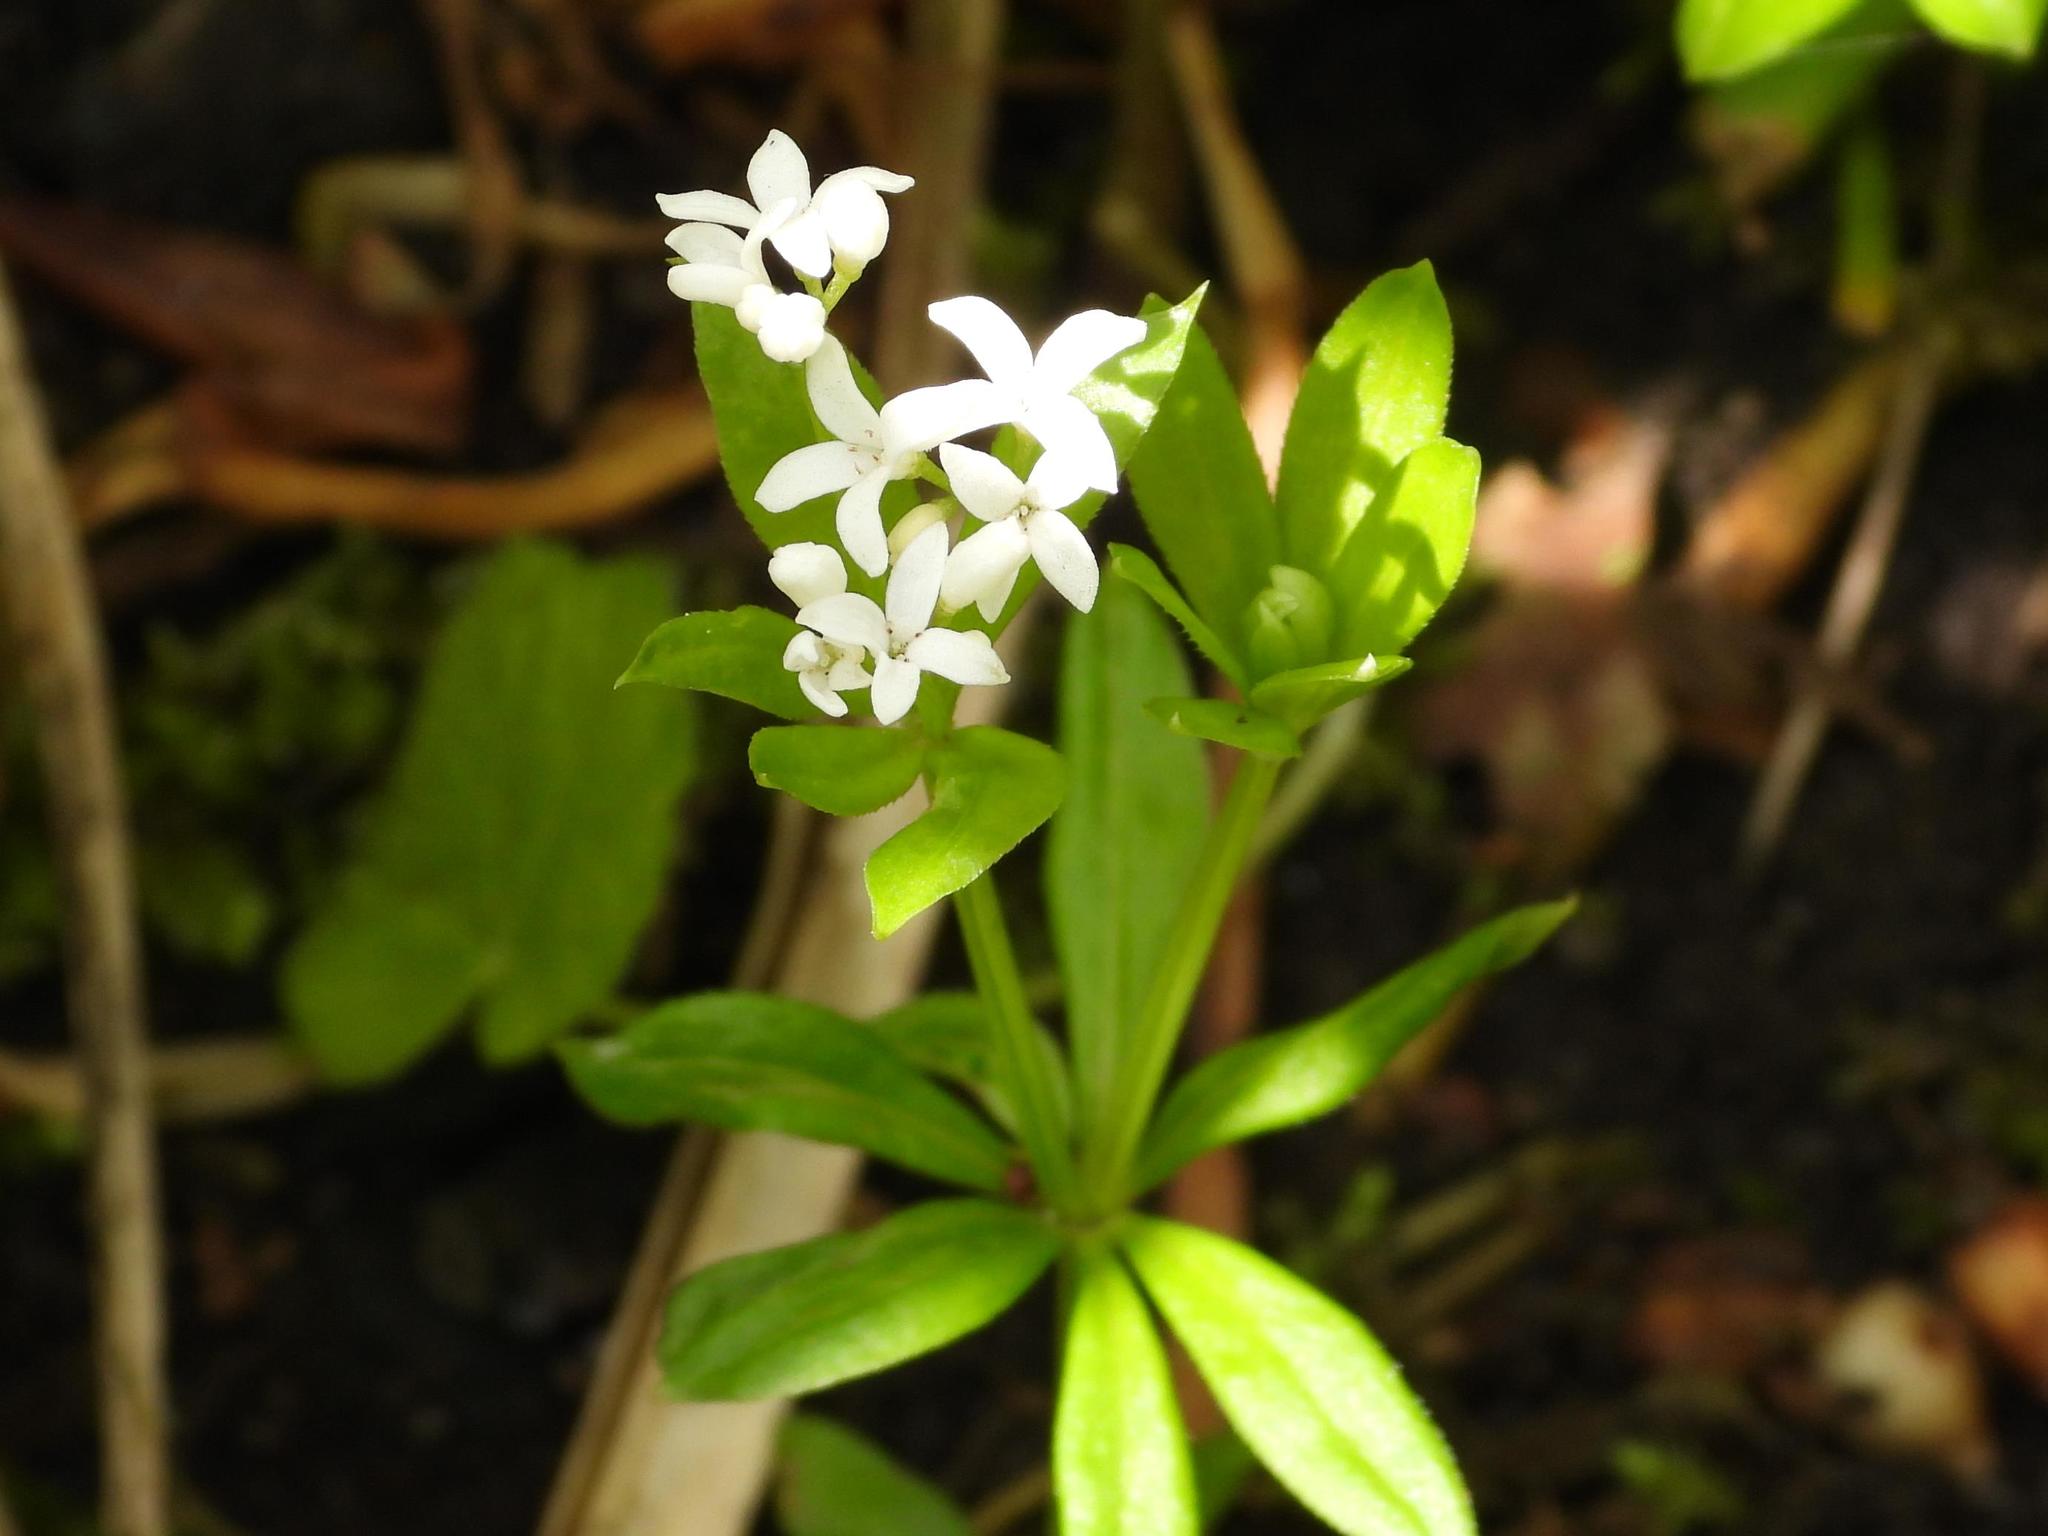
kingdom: Plantae
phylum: Tracheophyta
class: Magnoliopsida
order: Gentianales
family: Rubiaceae
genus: Galium
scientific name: Galium odoratum
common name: Sweet woodruff
